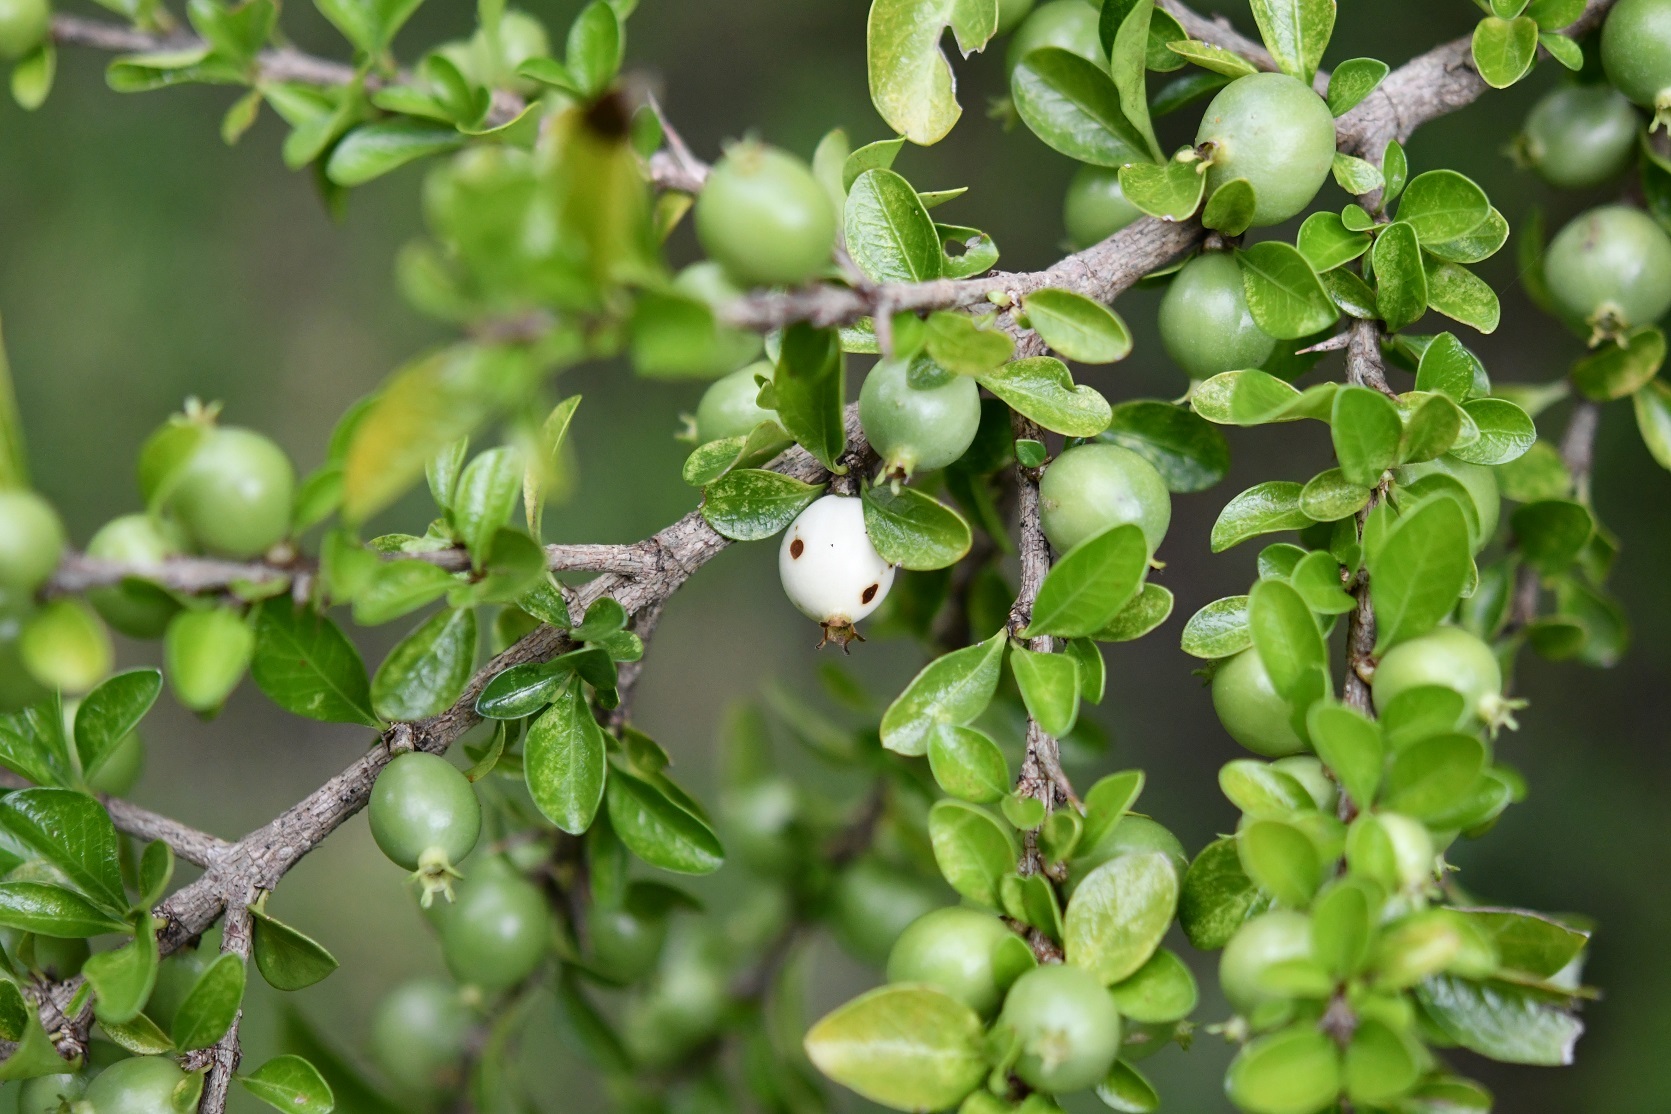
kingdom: Plantae
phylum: Tracheophyta
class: Magnoliopsida
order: Gentianales
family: Rubiaceae
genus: Randia
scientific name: Randia chiapensis
